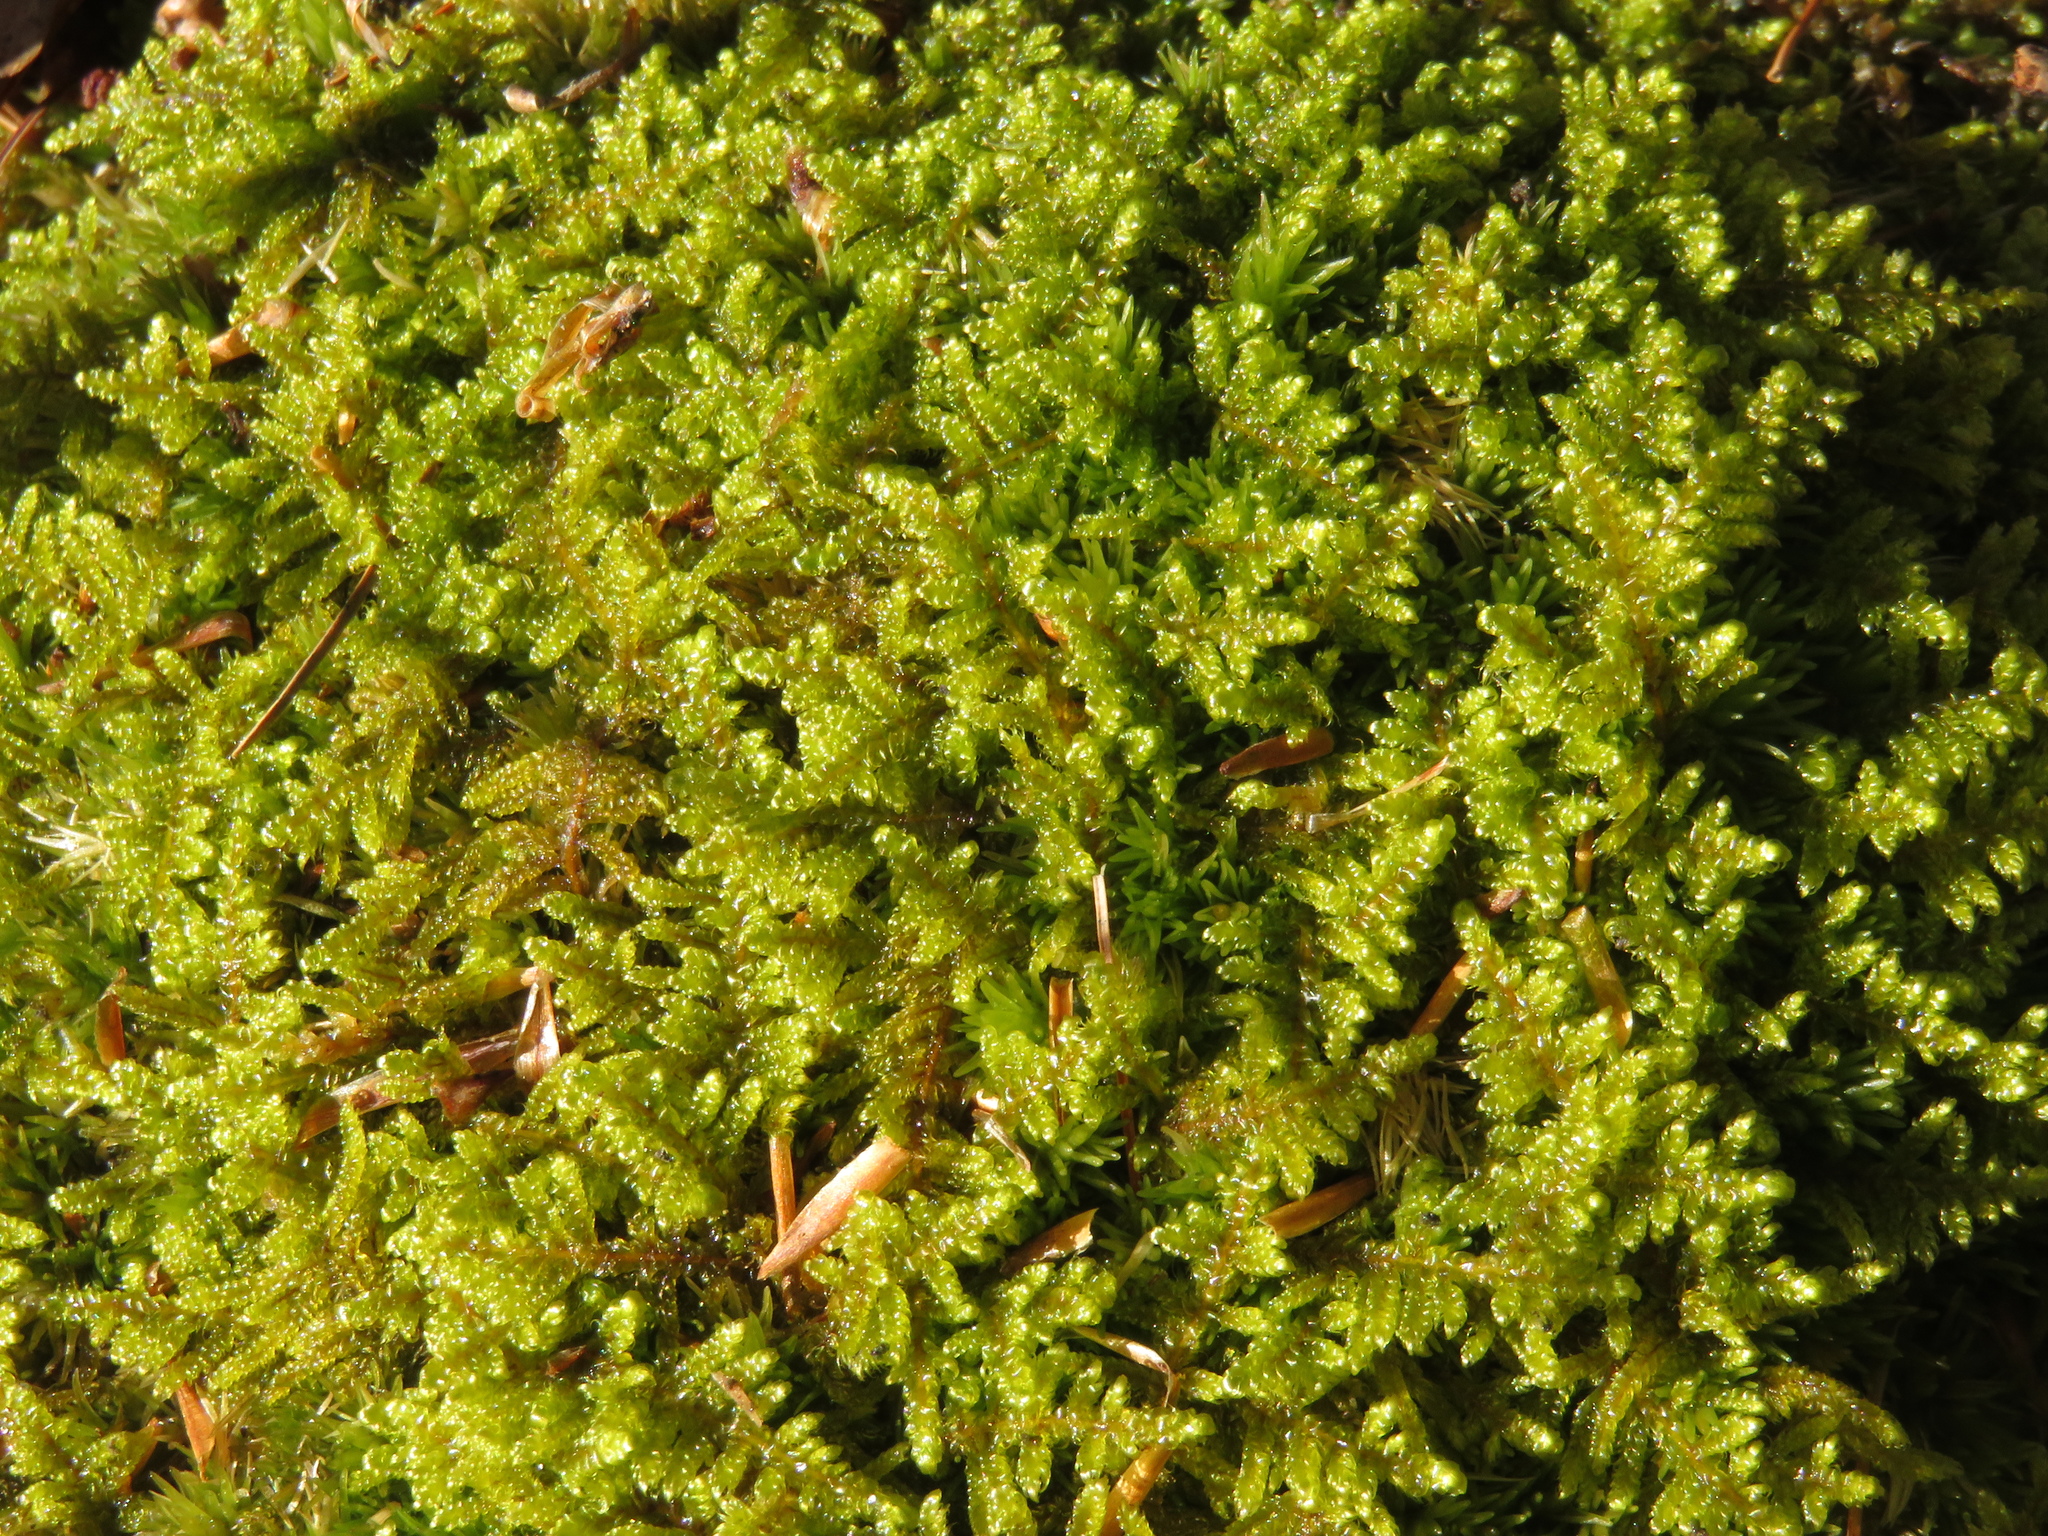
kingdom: Plantae
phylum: Bryophyta
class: Bryopsida
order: Hypnales
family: Callicladiaceae
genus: Callicladium
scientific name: Callicladium imponens
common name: Brocade moss
